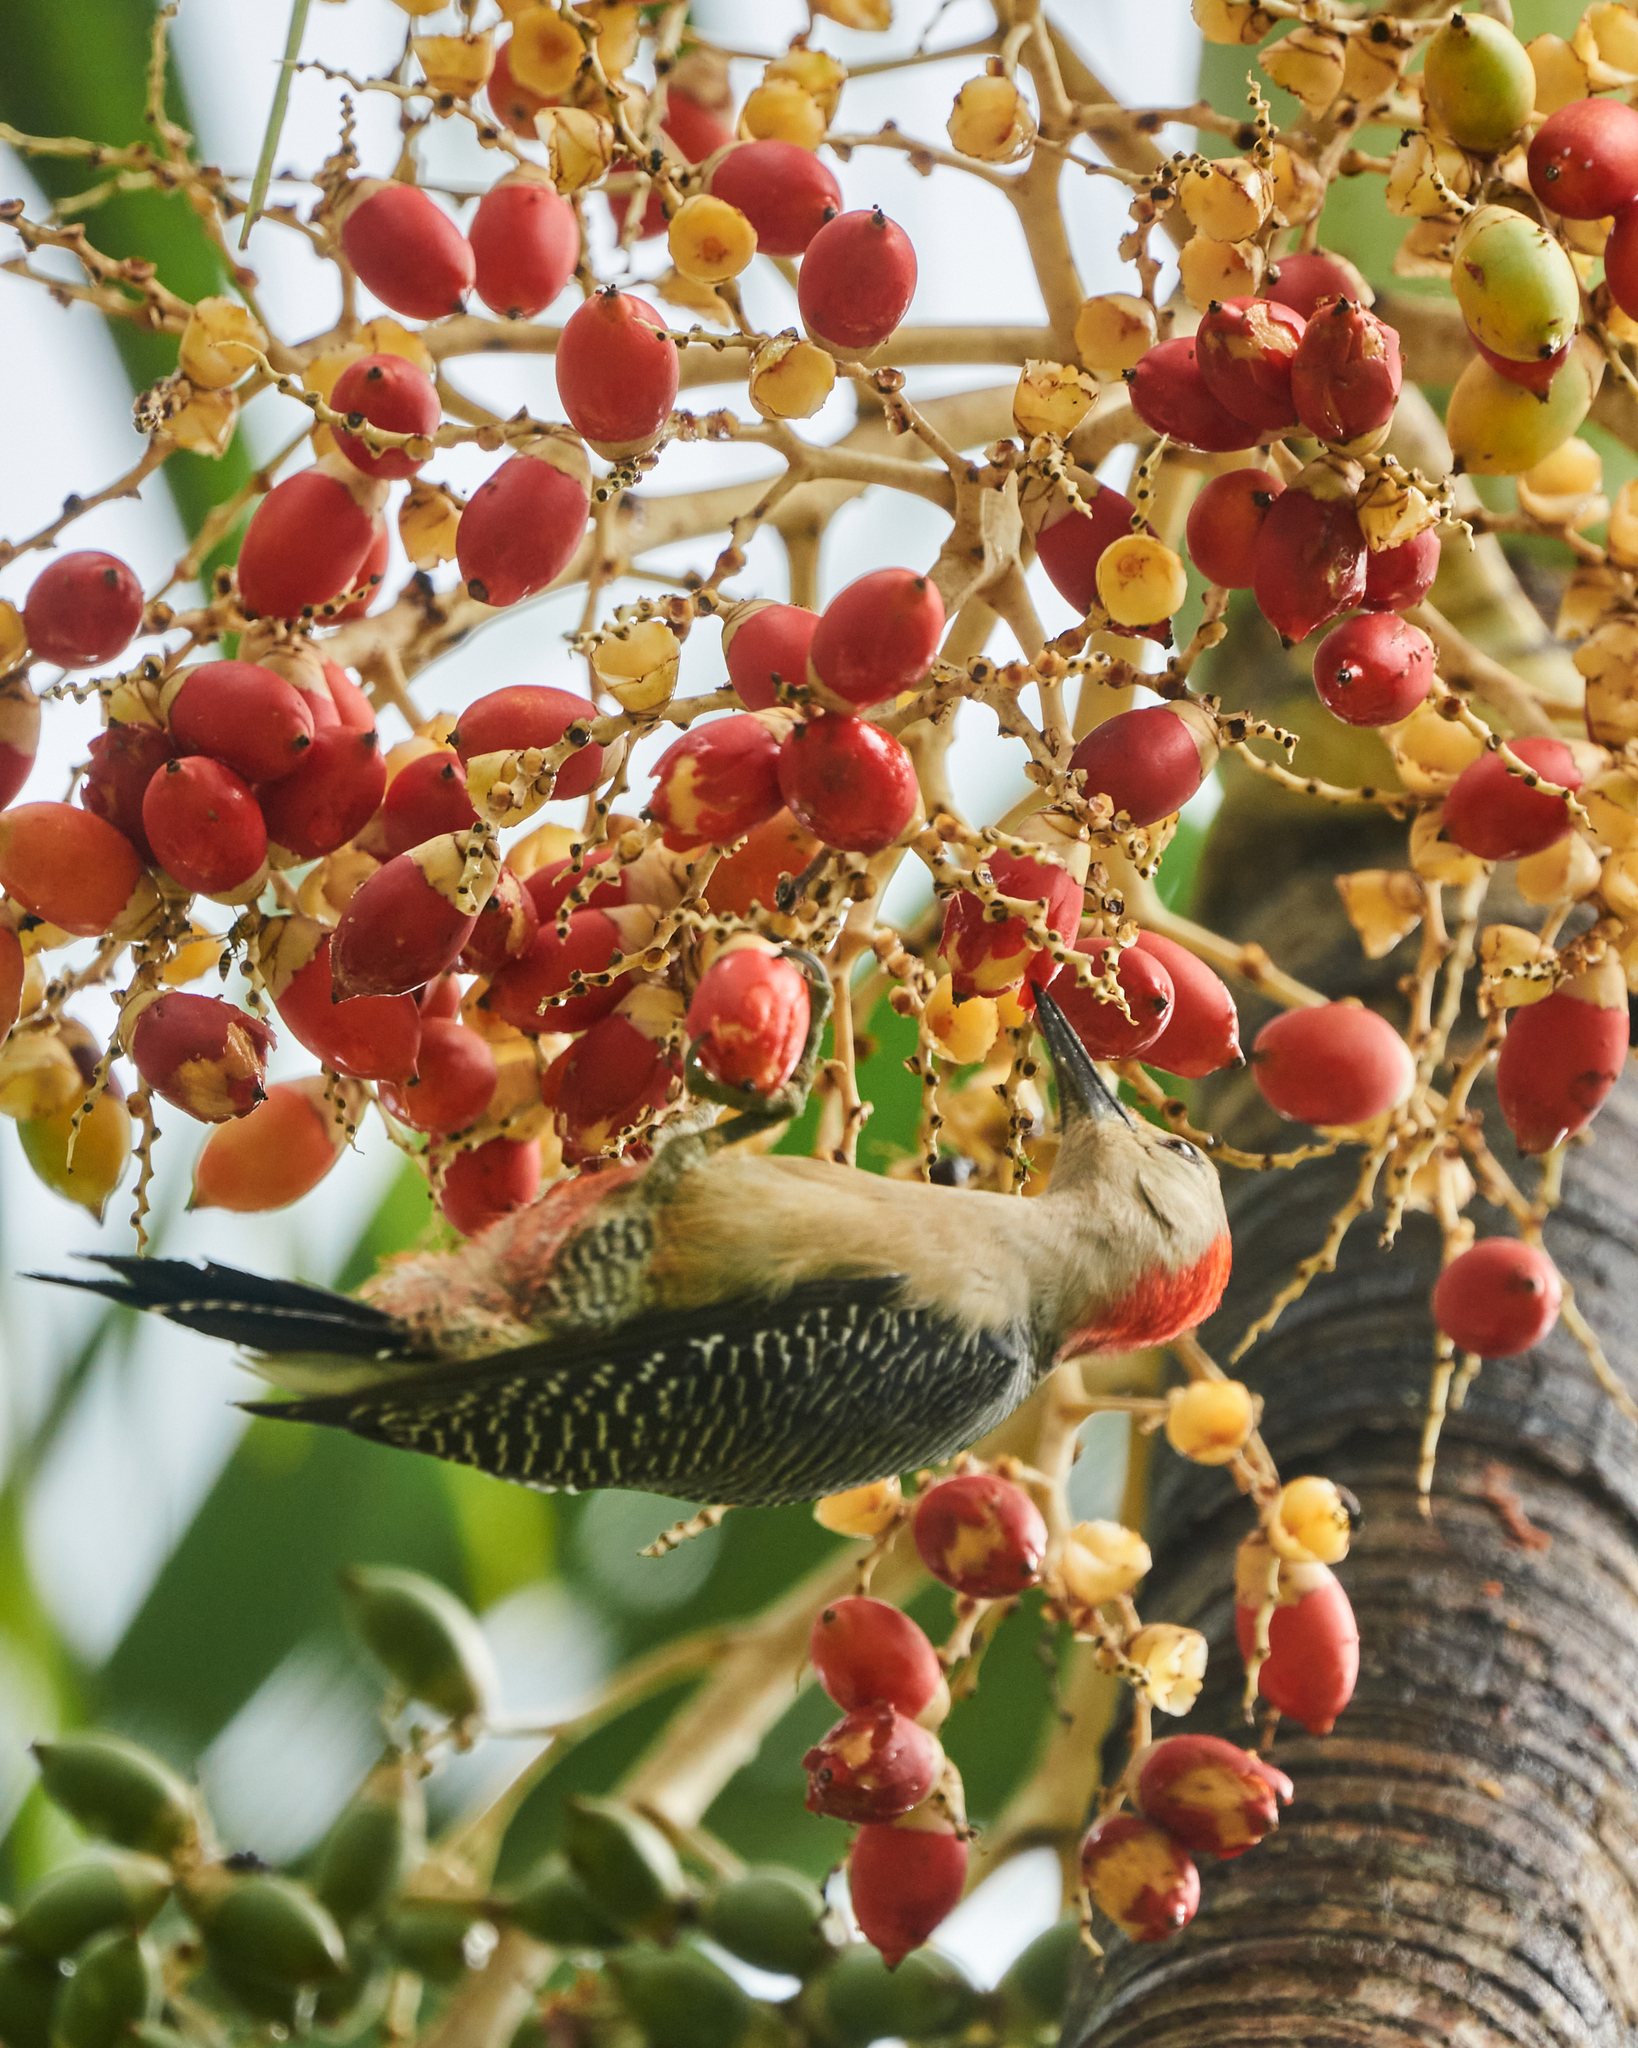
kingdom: Animalia
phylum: Chordata
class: Aves
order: Piciformes
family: Picidae
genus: Melanerpes
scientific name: Melanerpes aurifrons
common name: Golden-fronted woodpecker
